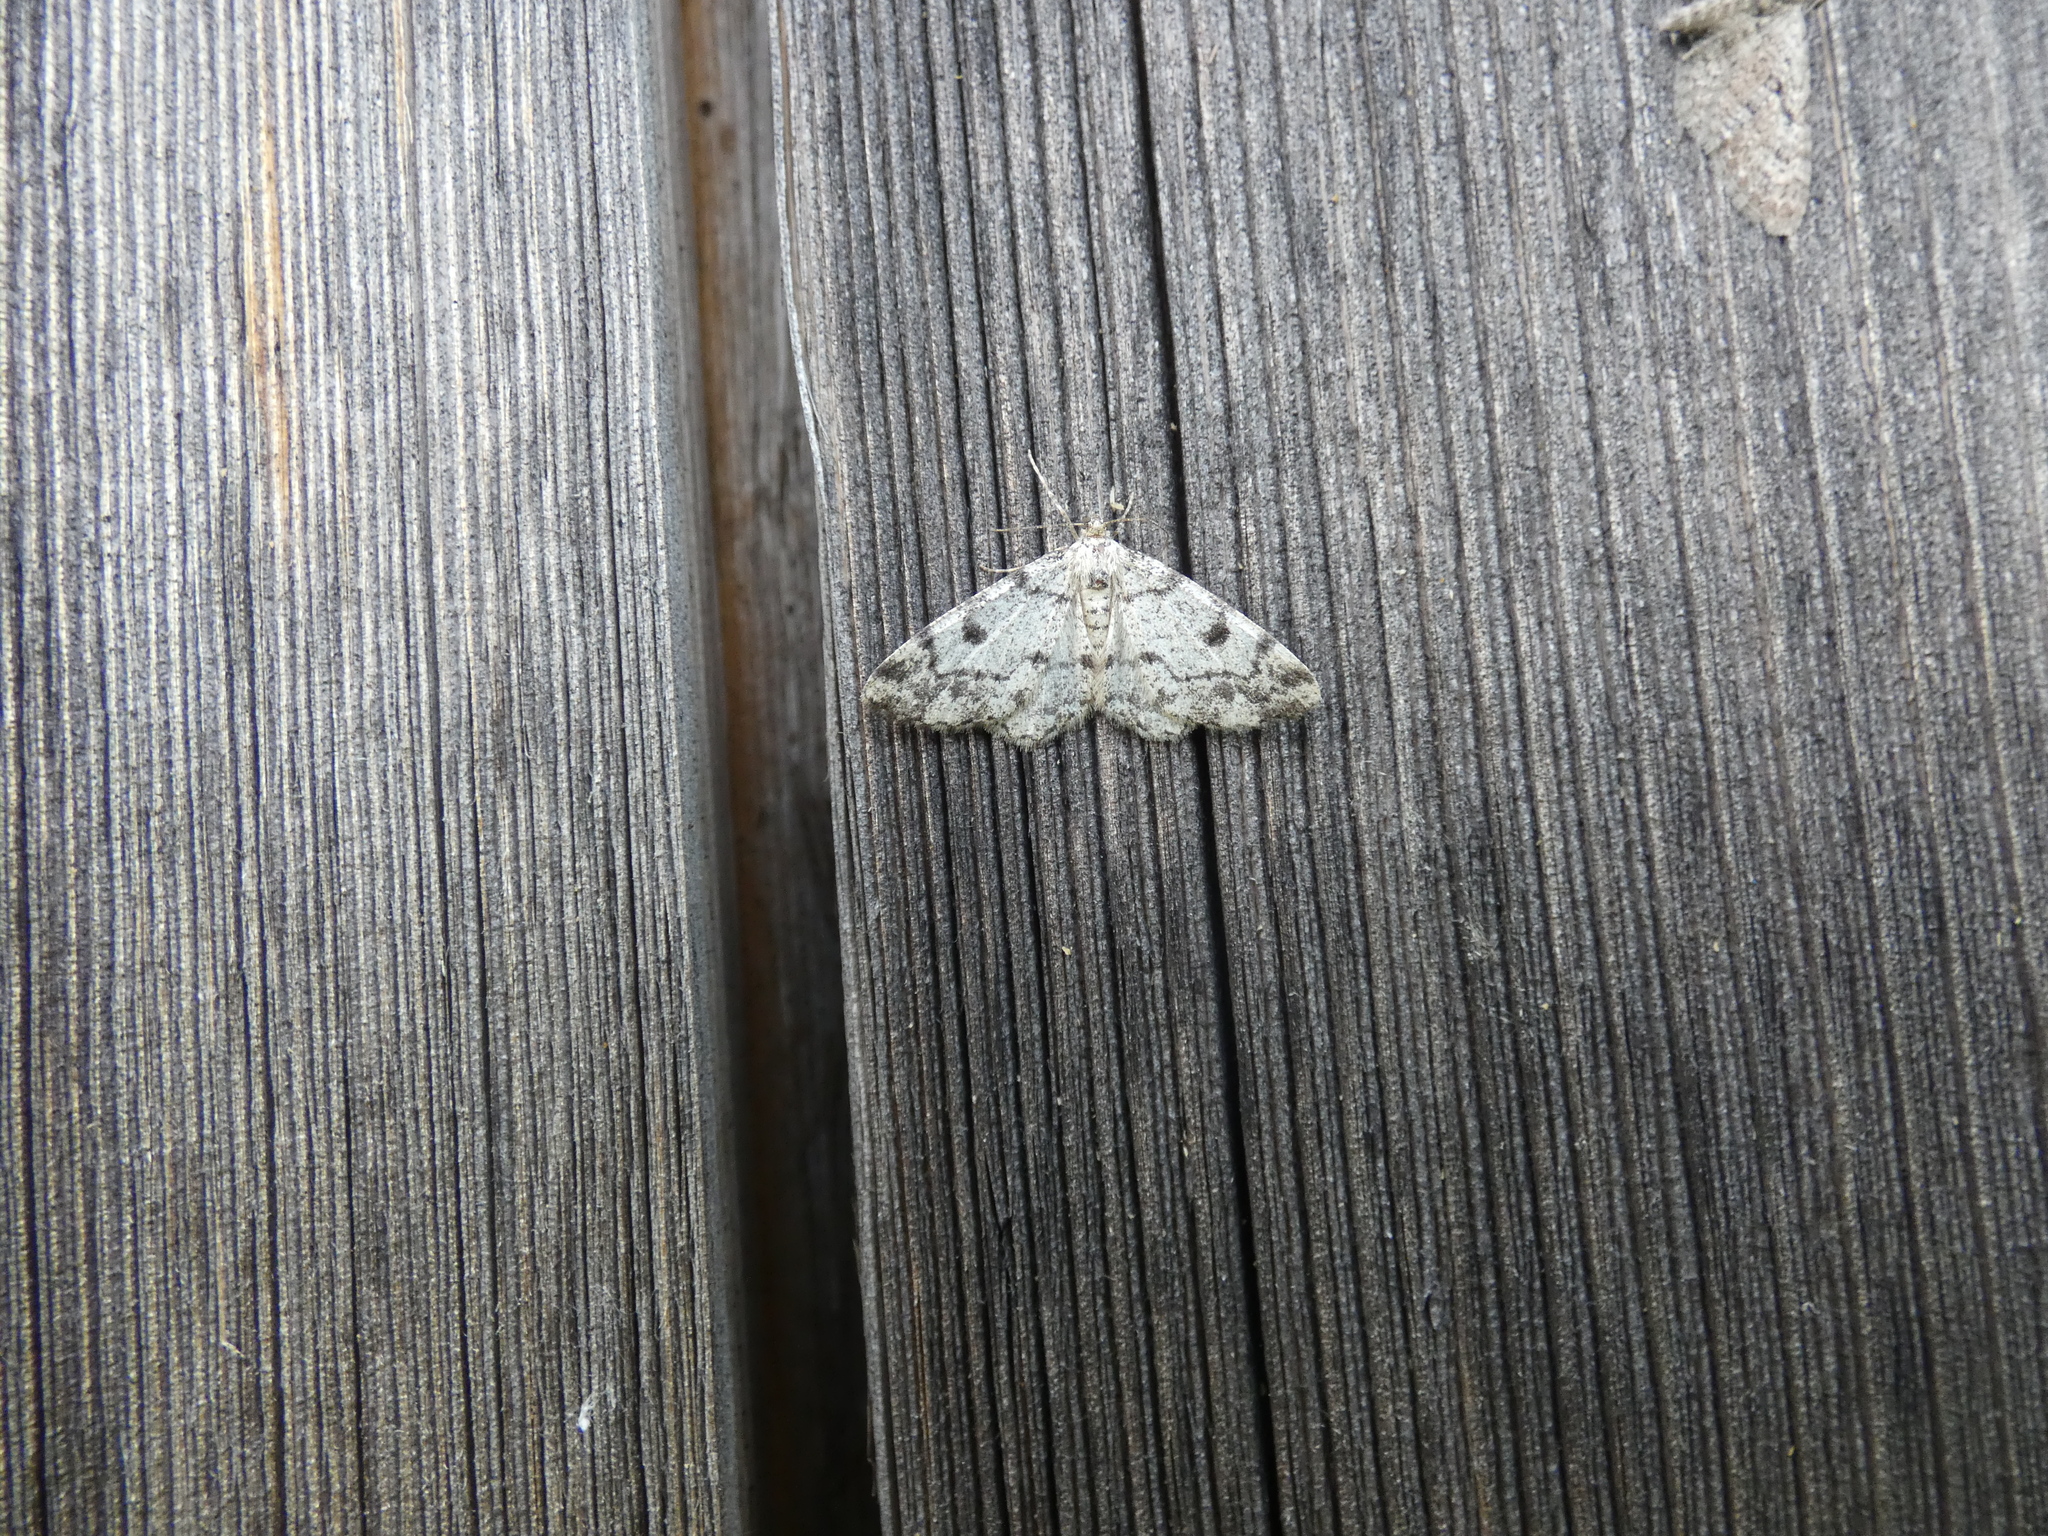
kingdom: Animalia
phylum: Arthropoda
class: Insecta
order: Lepidoptera
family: Geometridae
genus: Alcis
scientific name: Alcis jubata
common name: Dotted carpet
